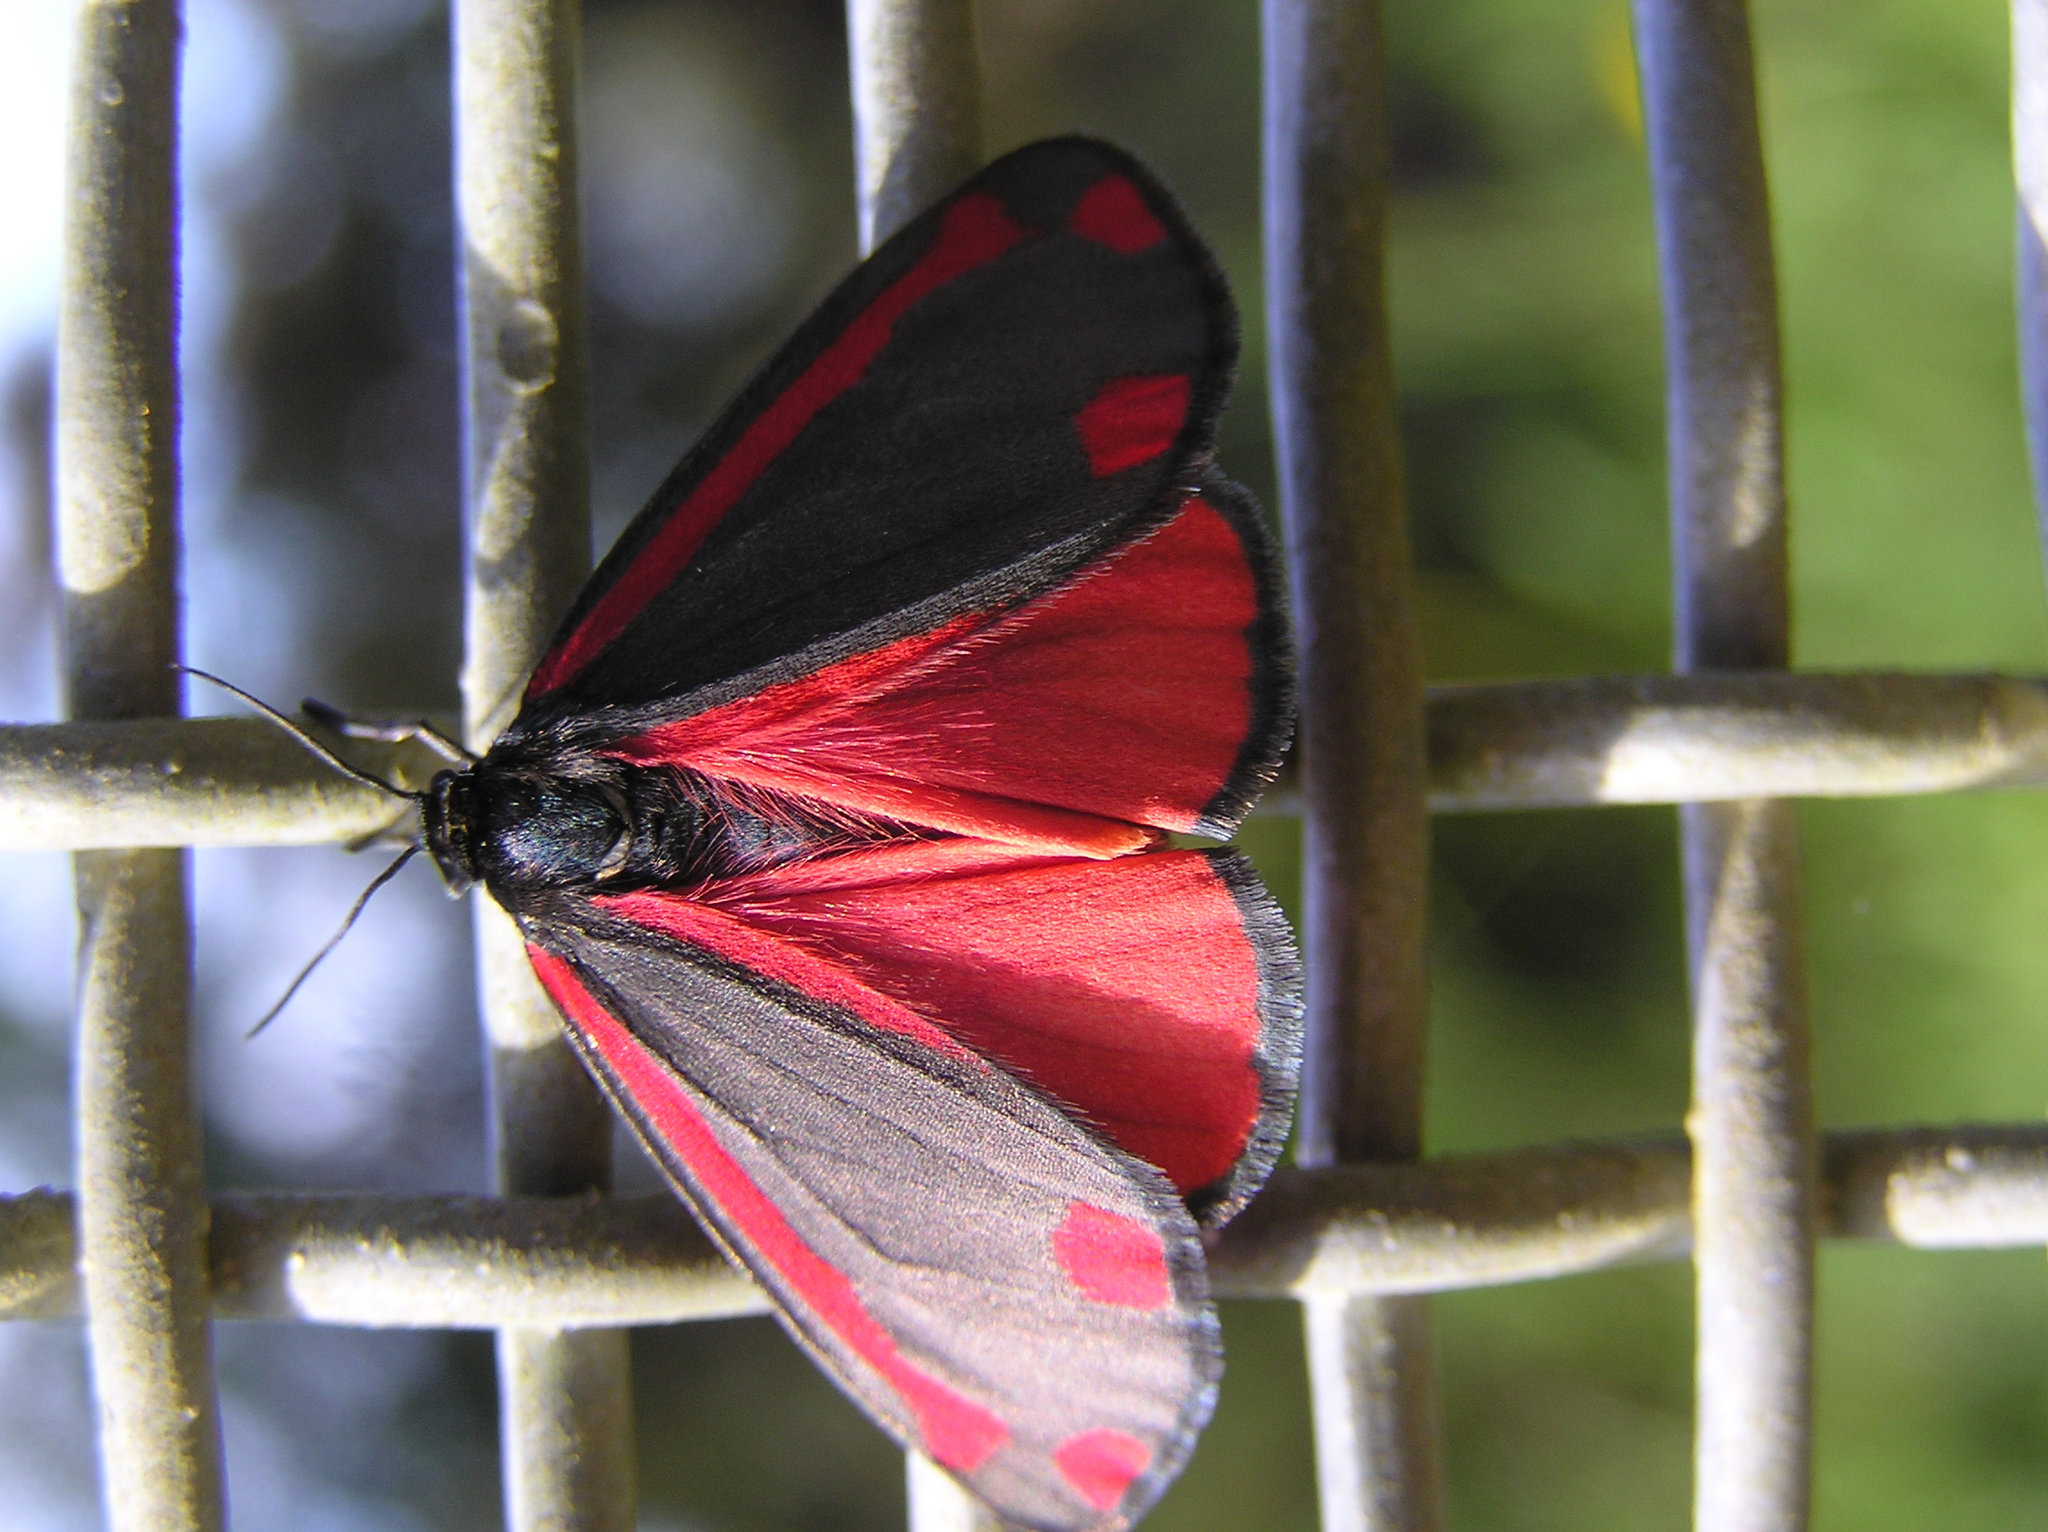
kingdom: Animalia
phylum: Arthropoda
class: Insecta
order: Lepidoptera
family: Erebidae
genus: Tyria
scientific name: Tyria jacobaeae
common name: Cinnabar
